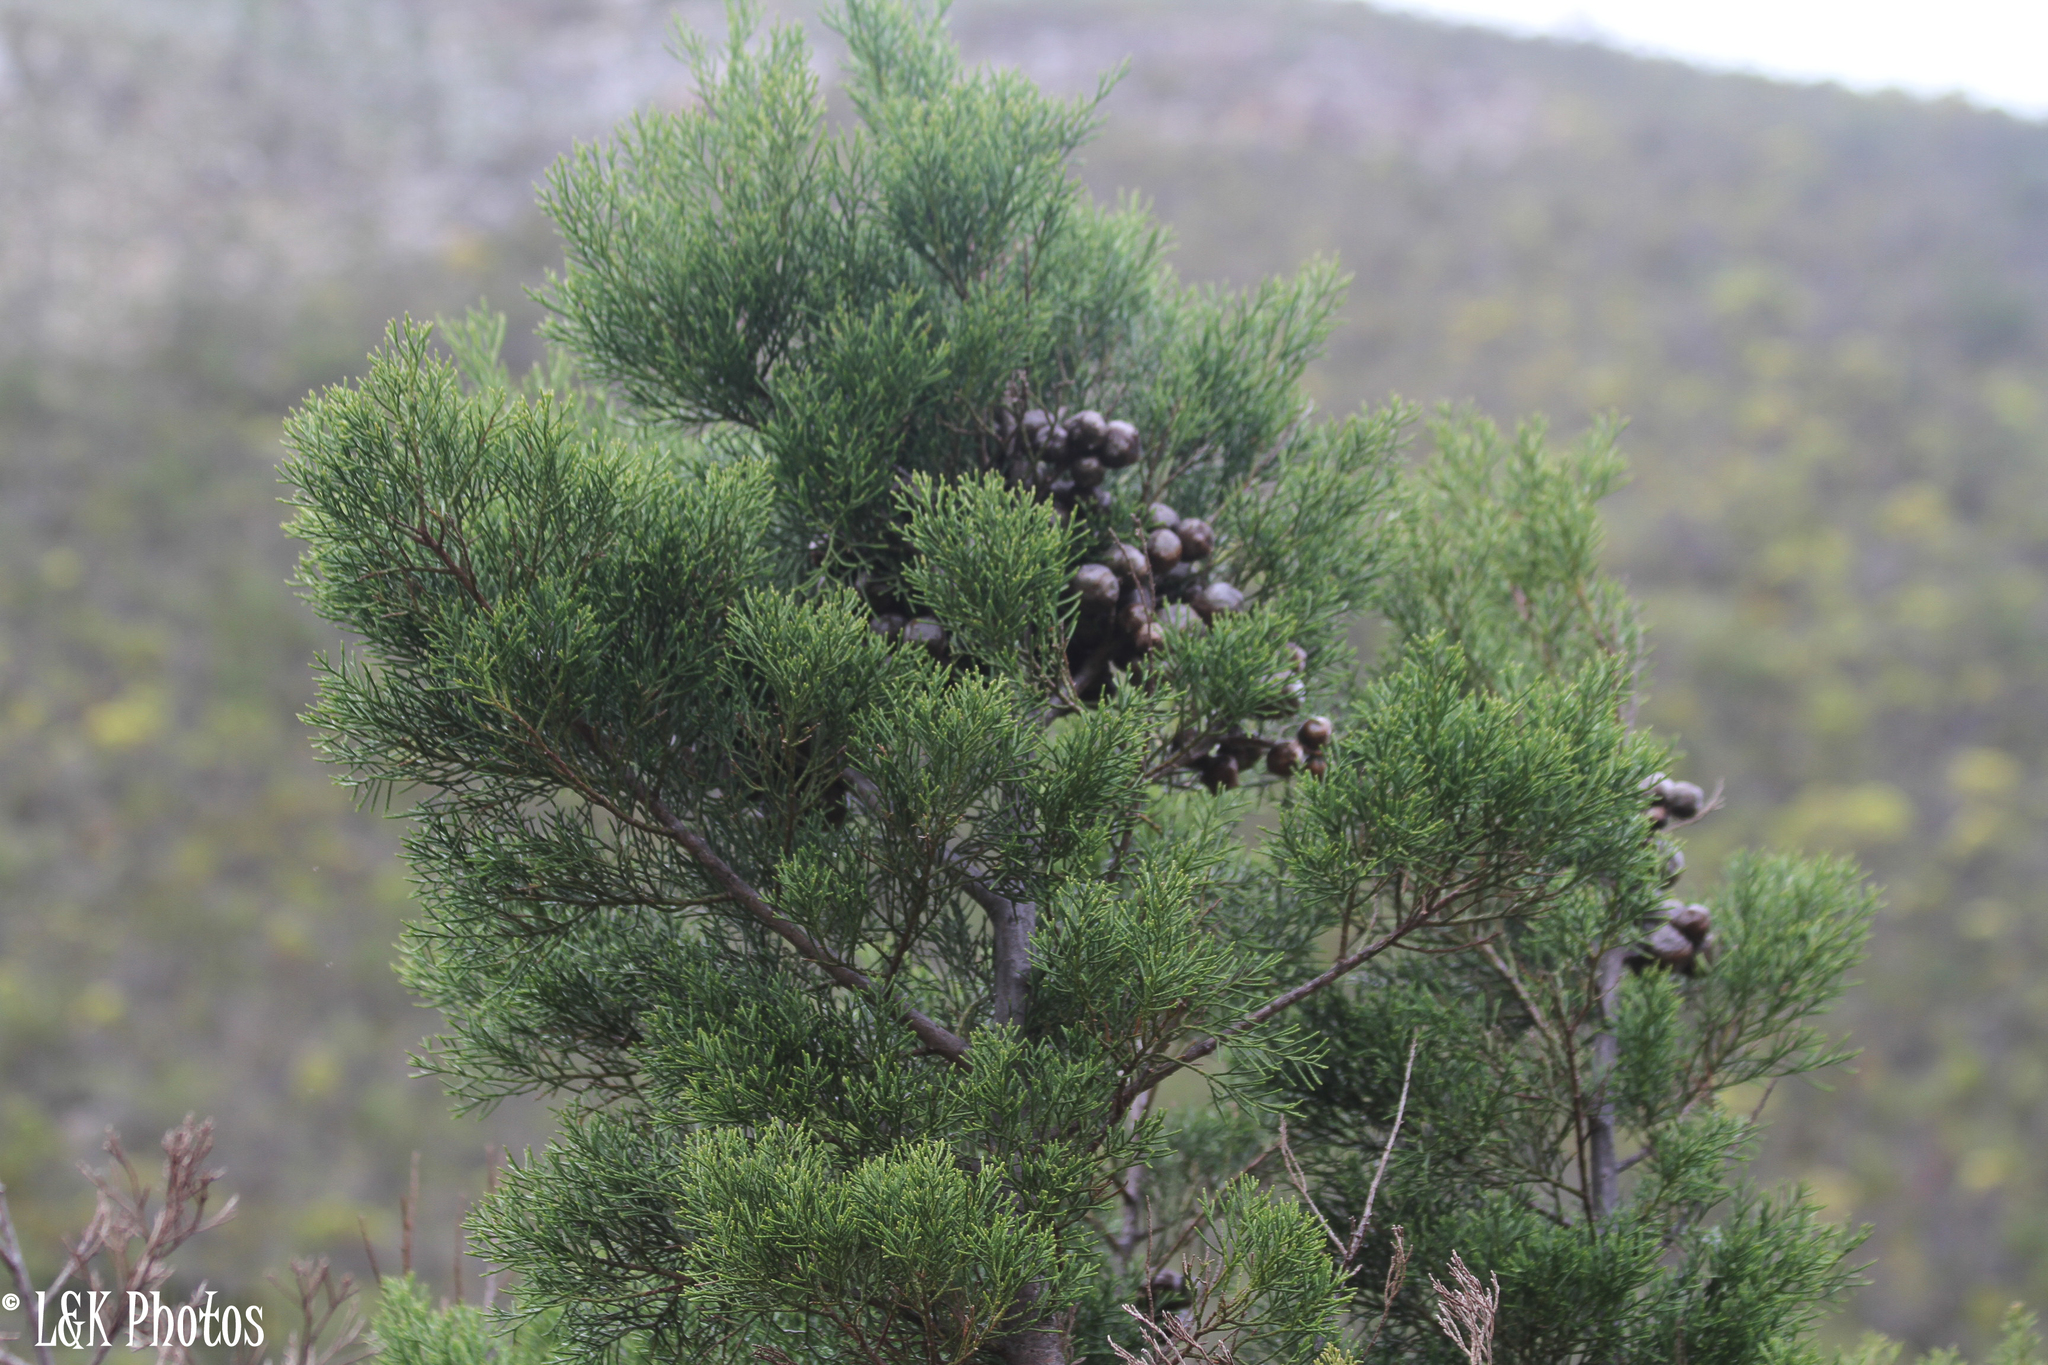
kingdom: Plantae
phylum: Tracheophyta
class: Pinopsida
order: Pinales
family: Cupressaceae
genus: Widdringtonia
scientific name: Widdringtonia nodiflora
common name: Cape cypress
